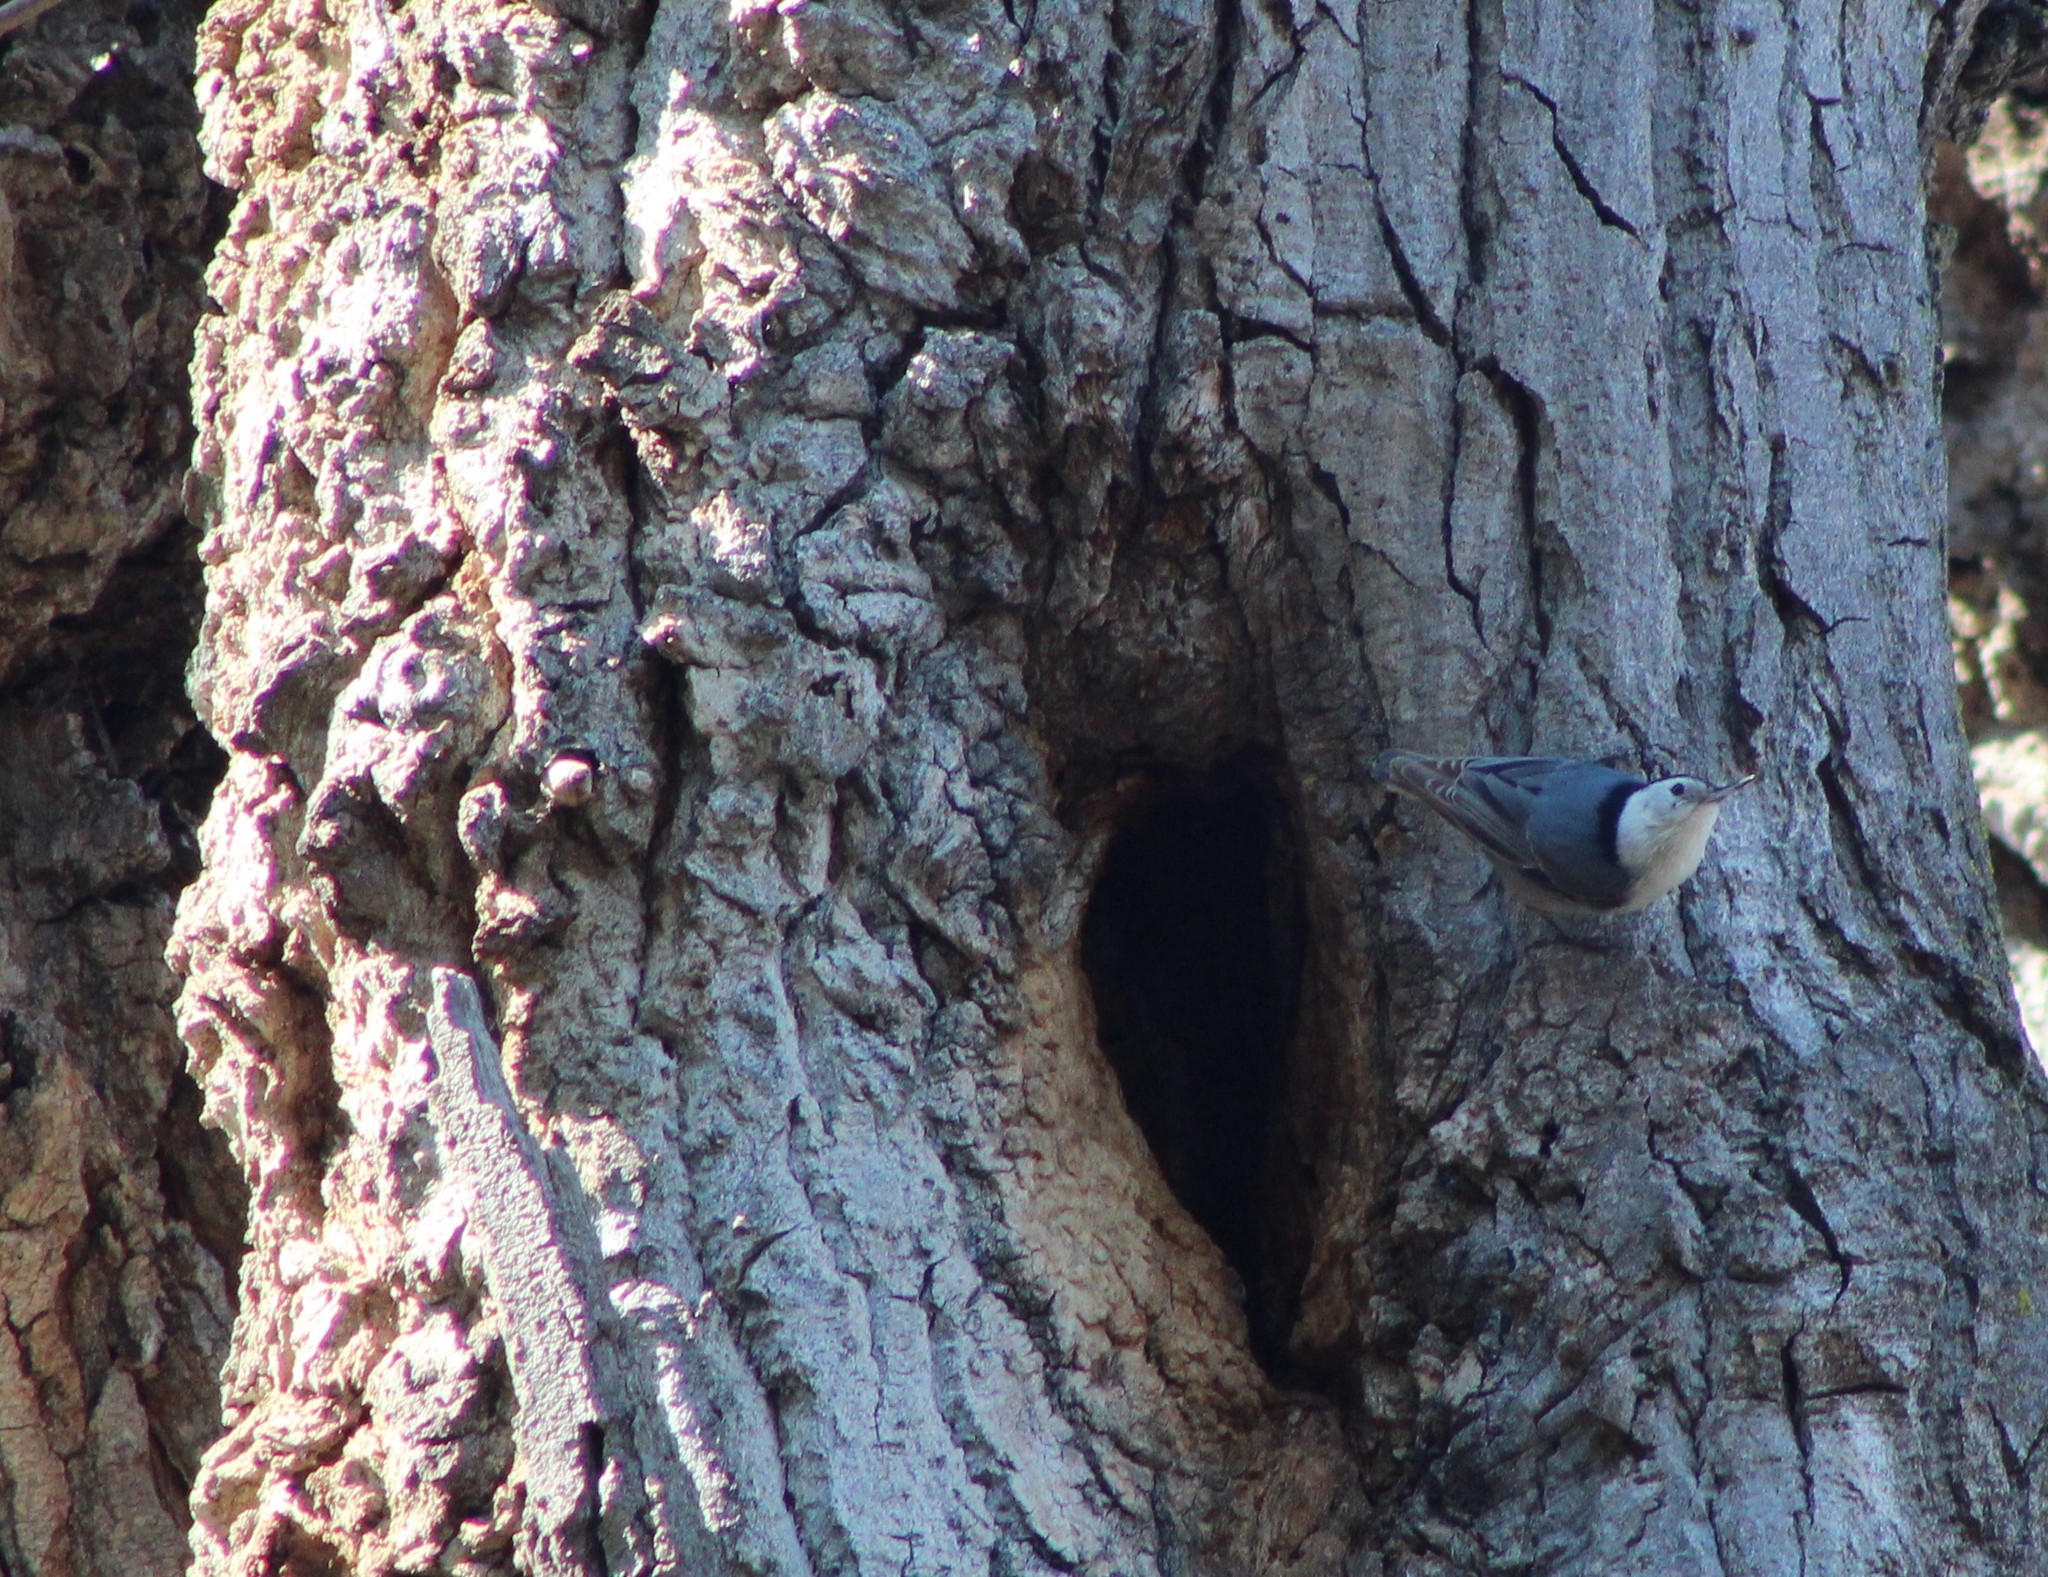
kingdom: Animalia
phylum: Chordata
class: Aves
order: Passeriformes
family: Sittidae
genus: Sitta
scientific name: Sitta carolinensis
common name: White-breasted nuthatch
